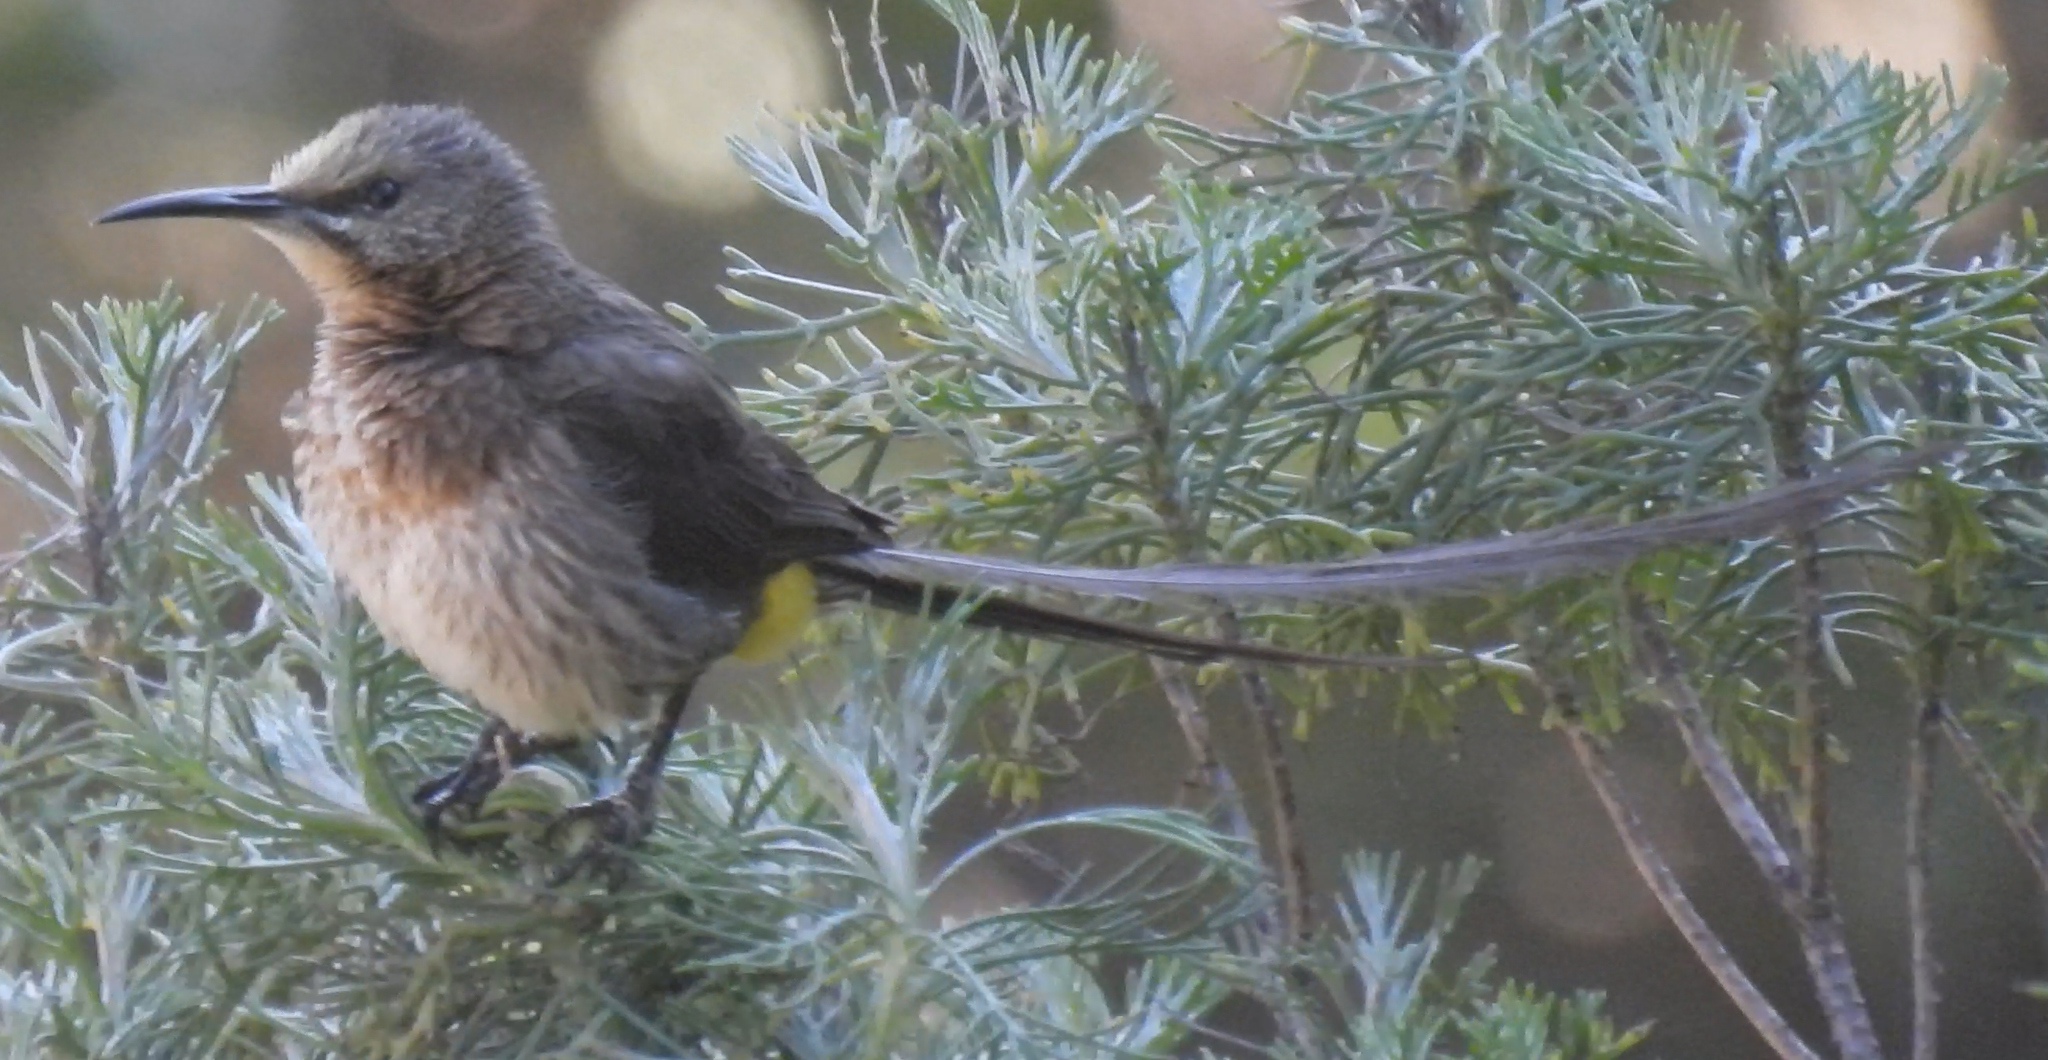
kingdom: Animalia
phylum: Chordata
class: Aves
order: Passeriformes
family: Promeropidae
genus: Promerops
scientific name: Promerops cafer
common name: Cape sugarbird
